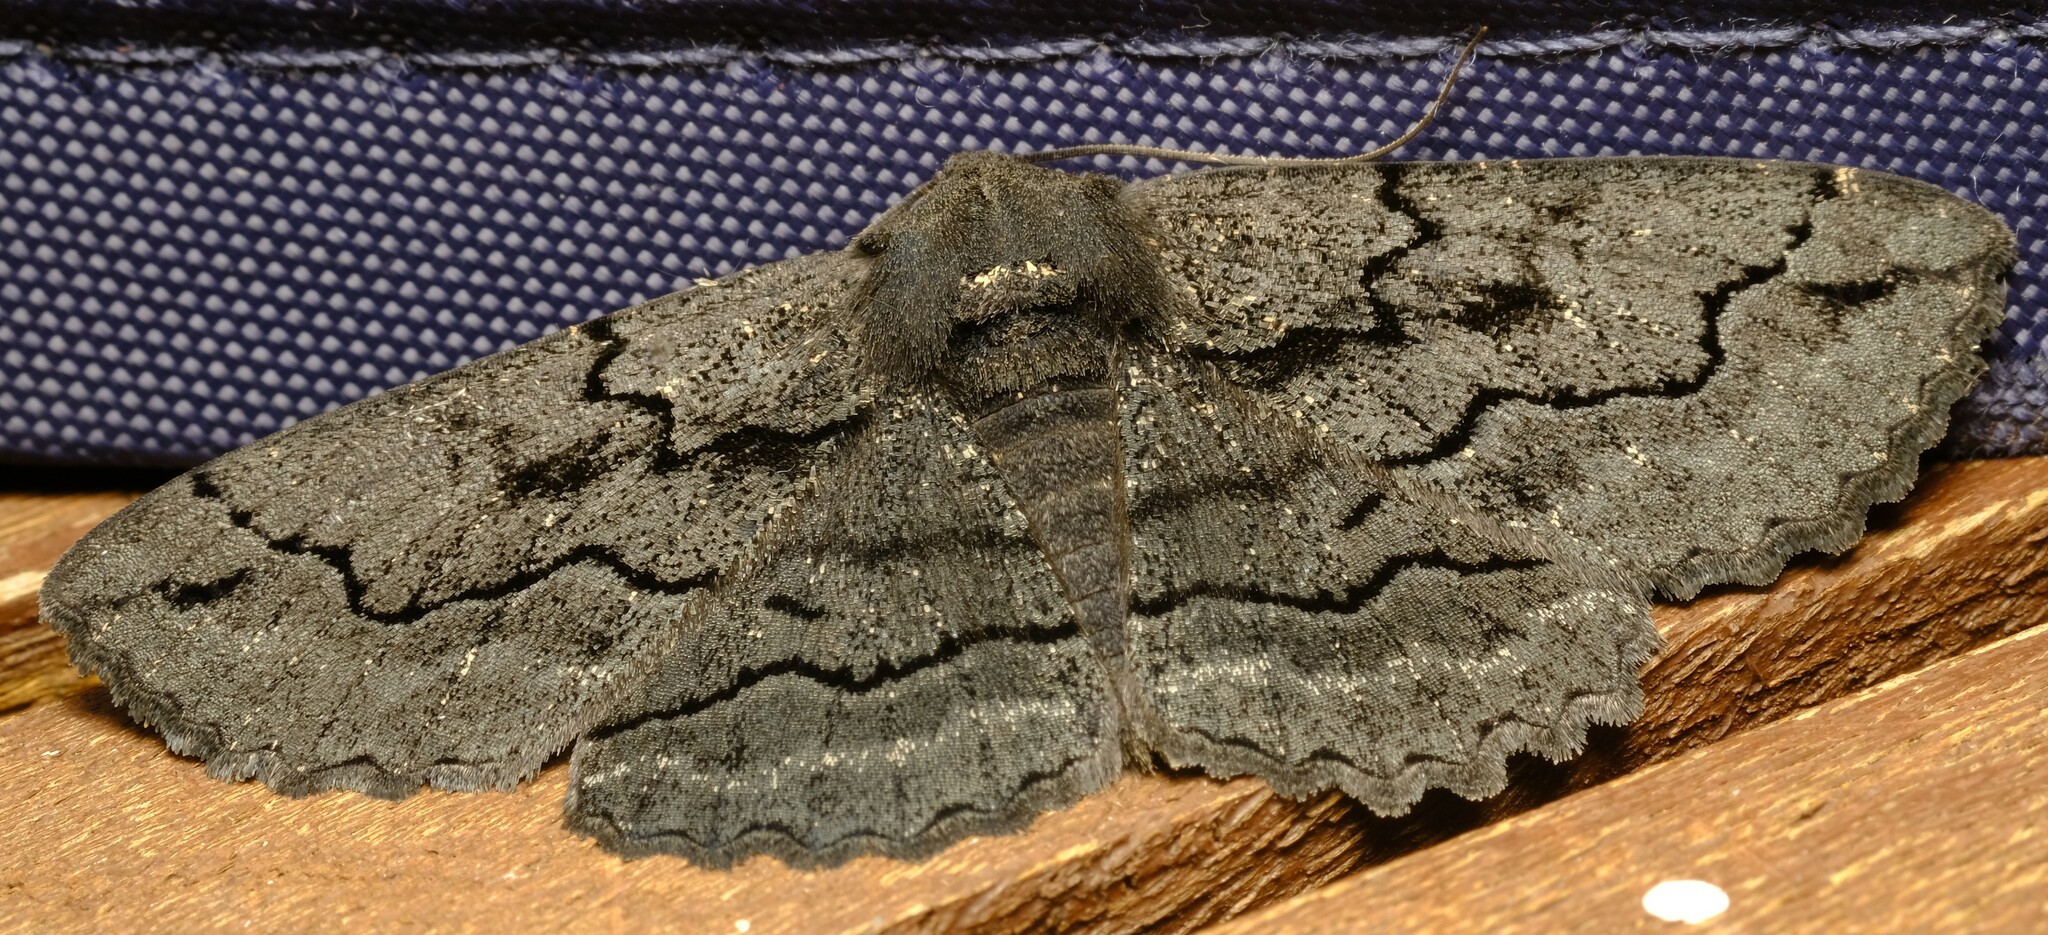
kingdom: Animalia
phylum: Arthropoda
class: Insecta
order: Lepidoptera
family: Geometridae
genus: Melanodes
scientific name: Melanodes anthracitaria
